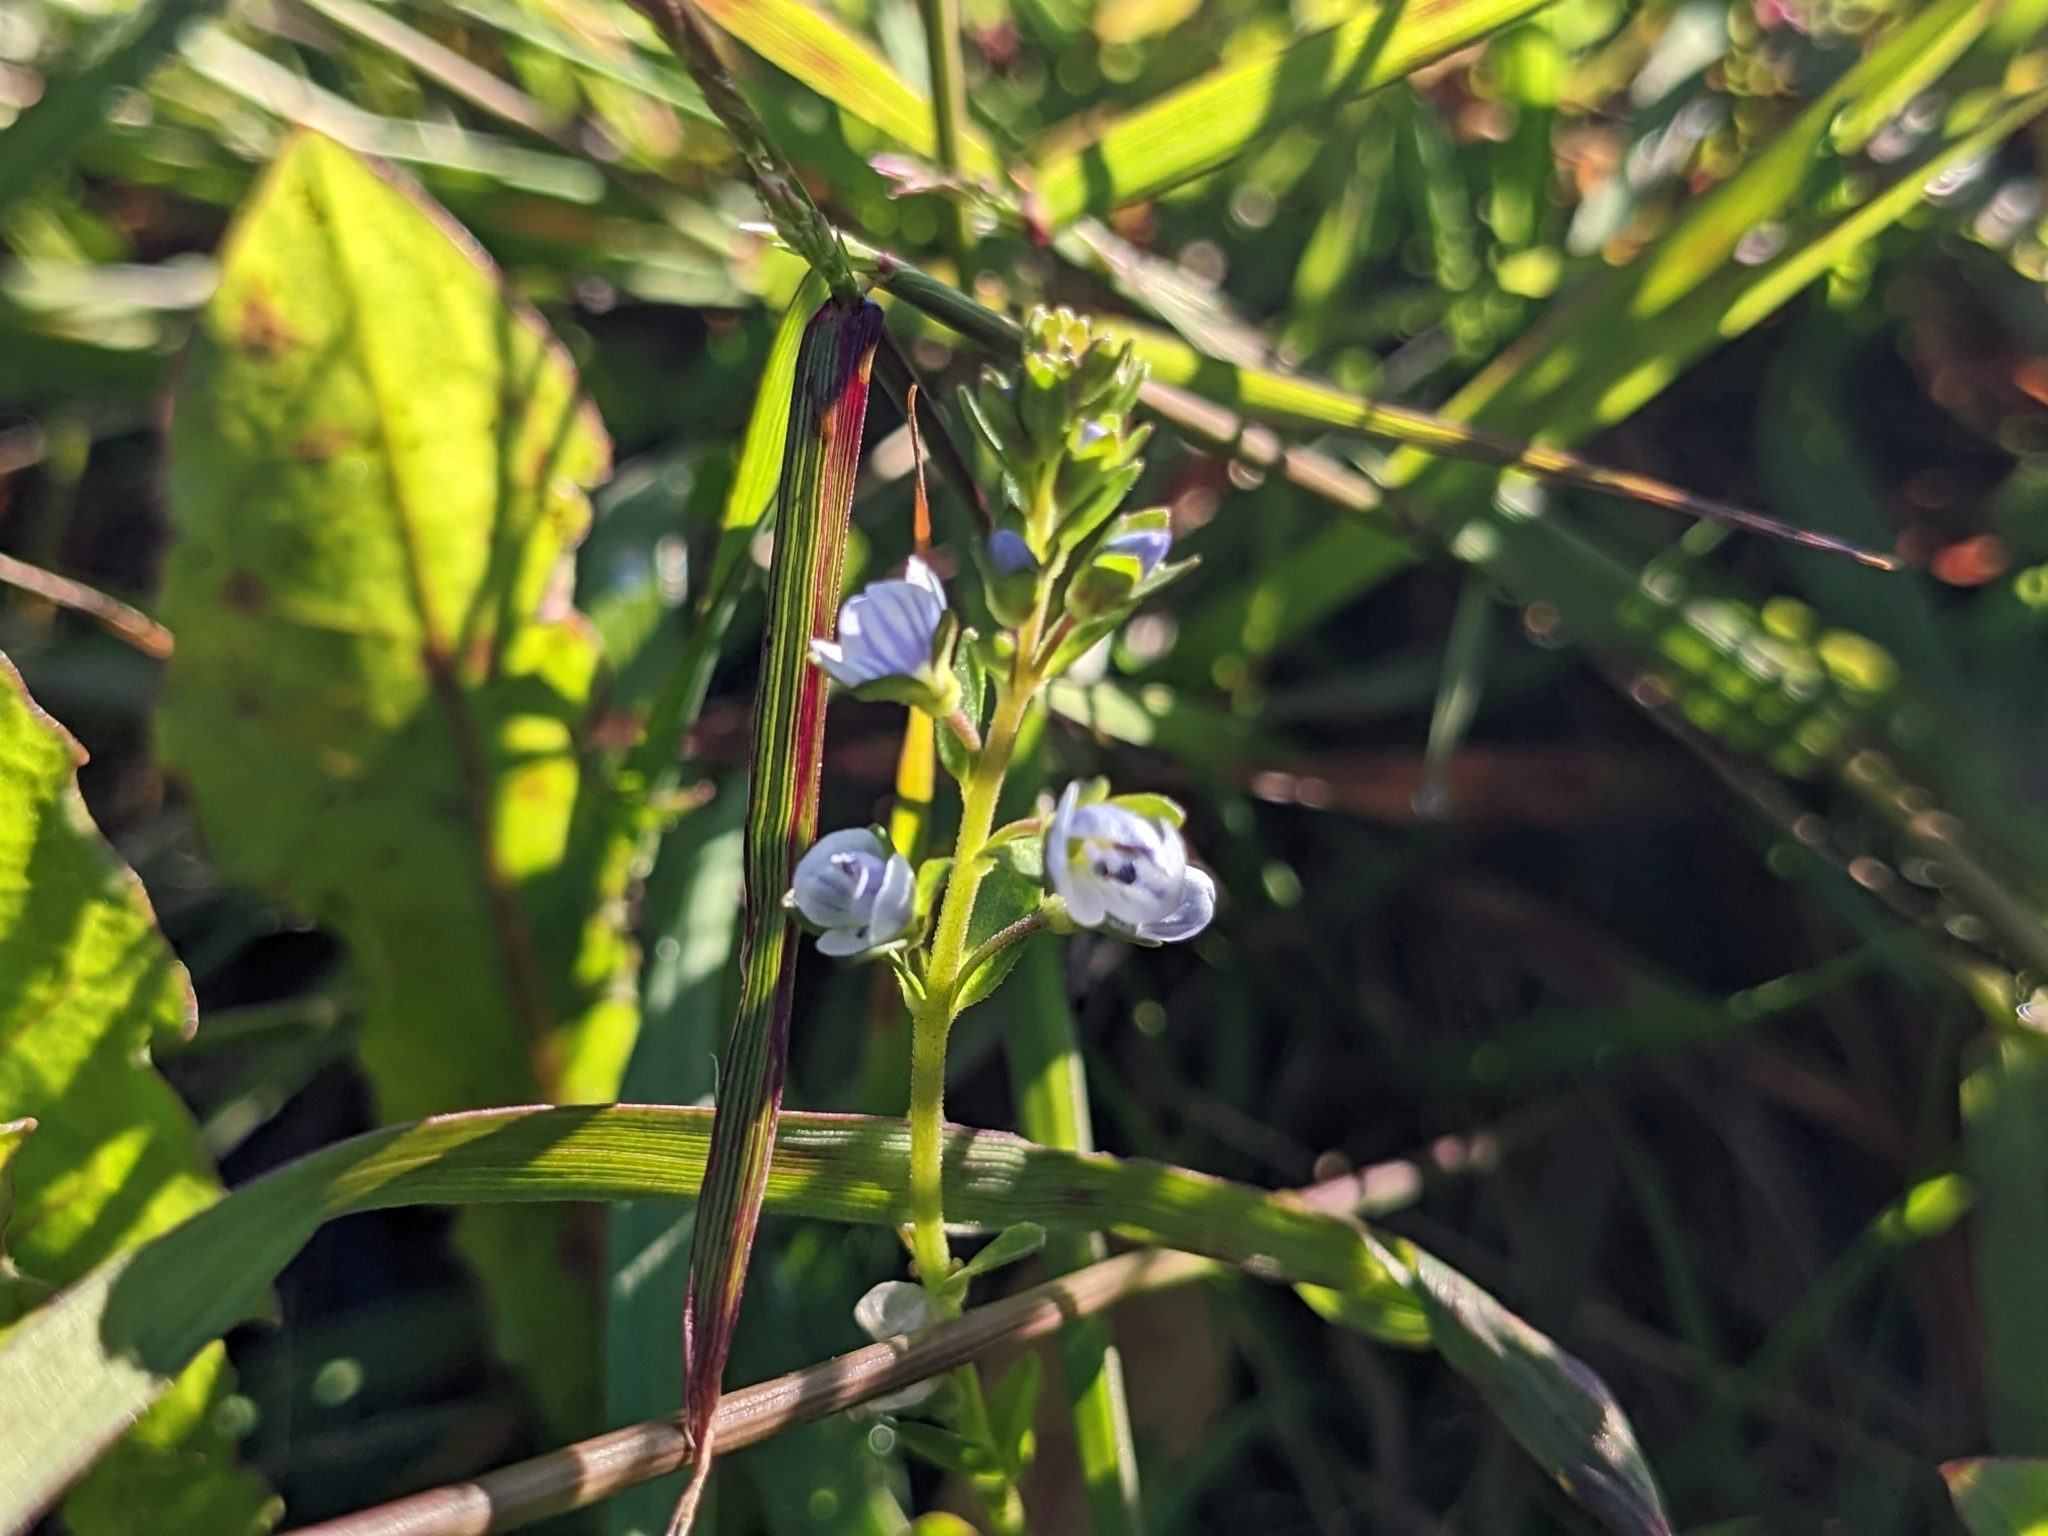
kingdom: Plantae
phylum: Tracheophyta
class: Magnoliopsida
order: Lamiales
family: Plantaginaceae
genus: Veronica
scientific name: Veronica serpyllifolia
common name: Thyme-leaved speedwell
